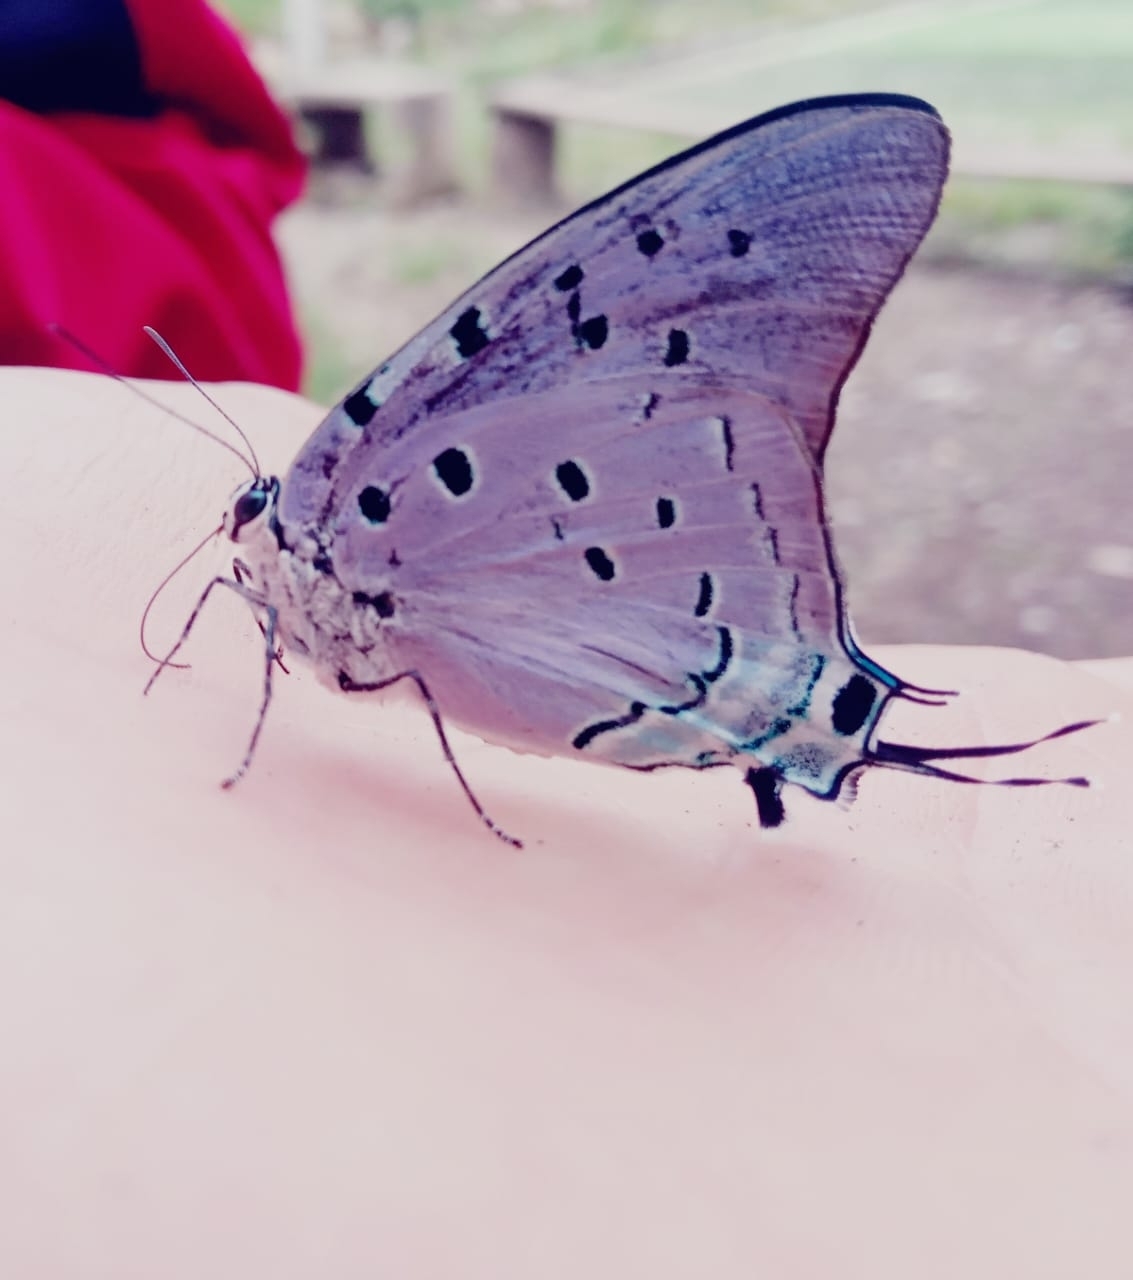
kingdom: Animalia
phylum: Arthropoda
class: Insecta
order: Lepidoptera
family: Lycaenidae
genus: Pseudolycaena
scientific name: Pseudolycaena marsyas
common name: Marsyas hairstreak
